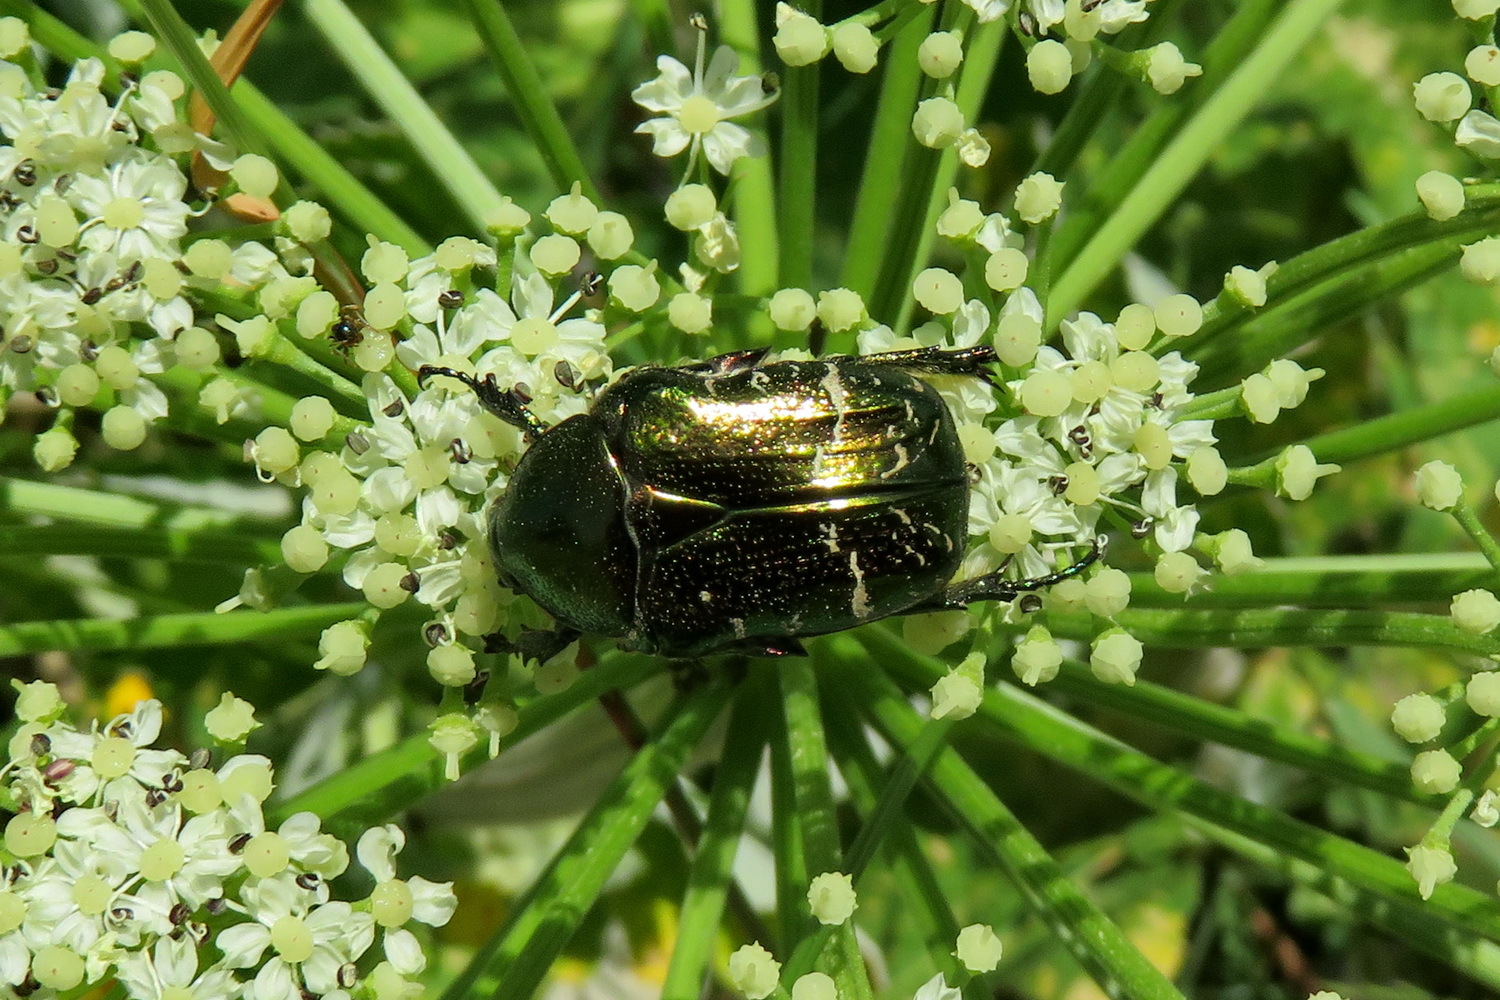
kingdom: Animalia
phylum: Arthropoda
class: Insecta
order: Coleoptera
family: Scarabaeidae
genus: Cetonia
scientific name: Cetonia aurata
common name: Rose chafer
